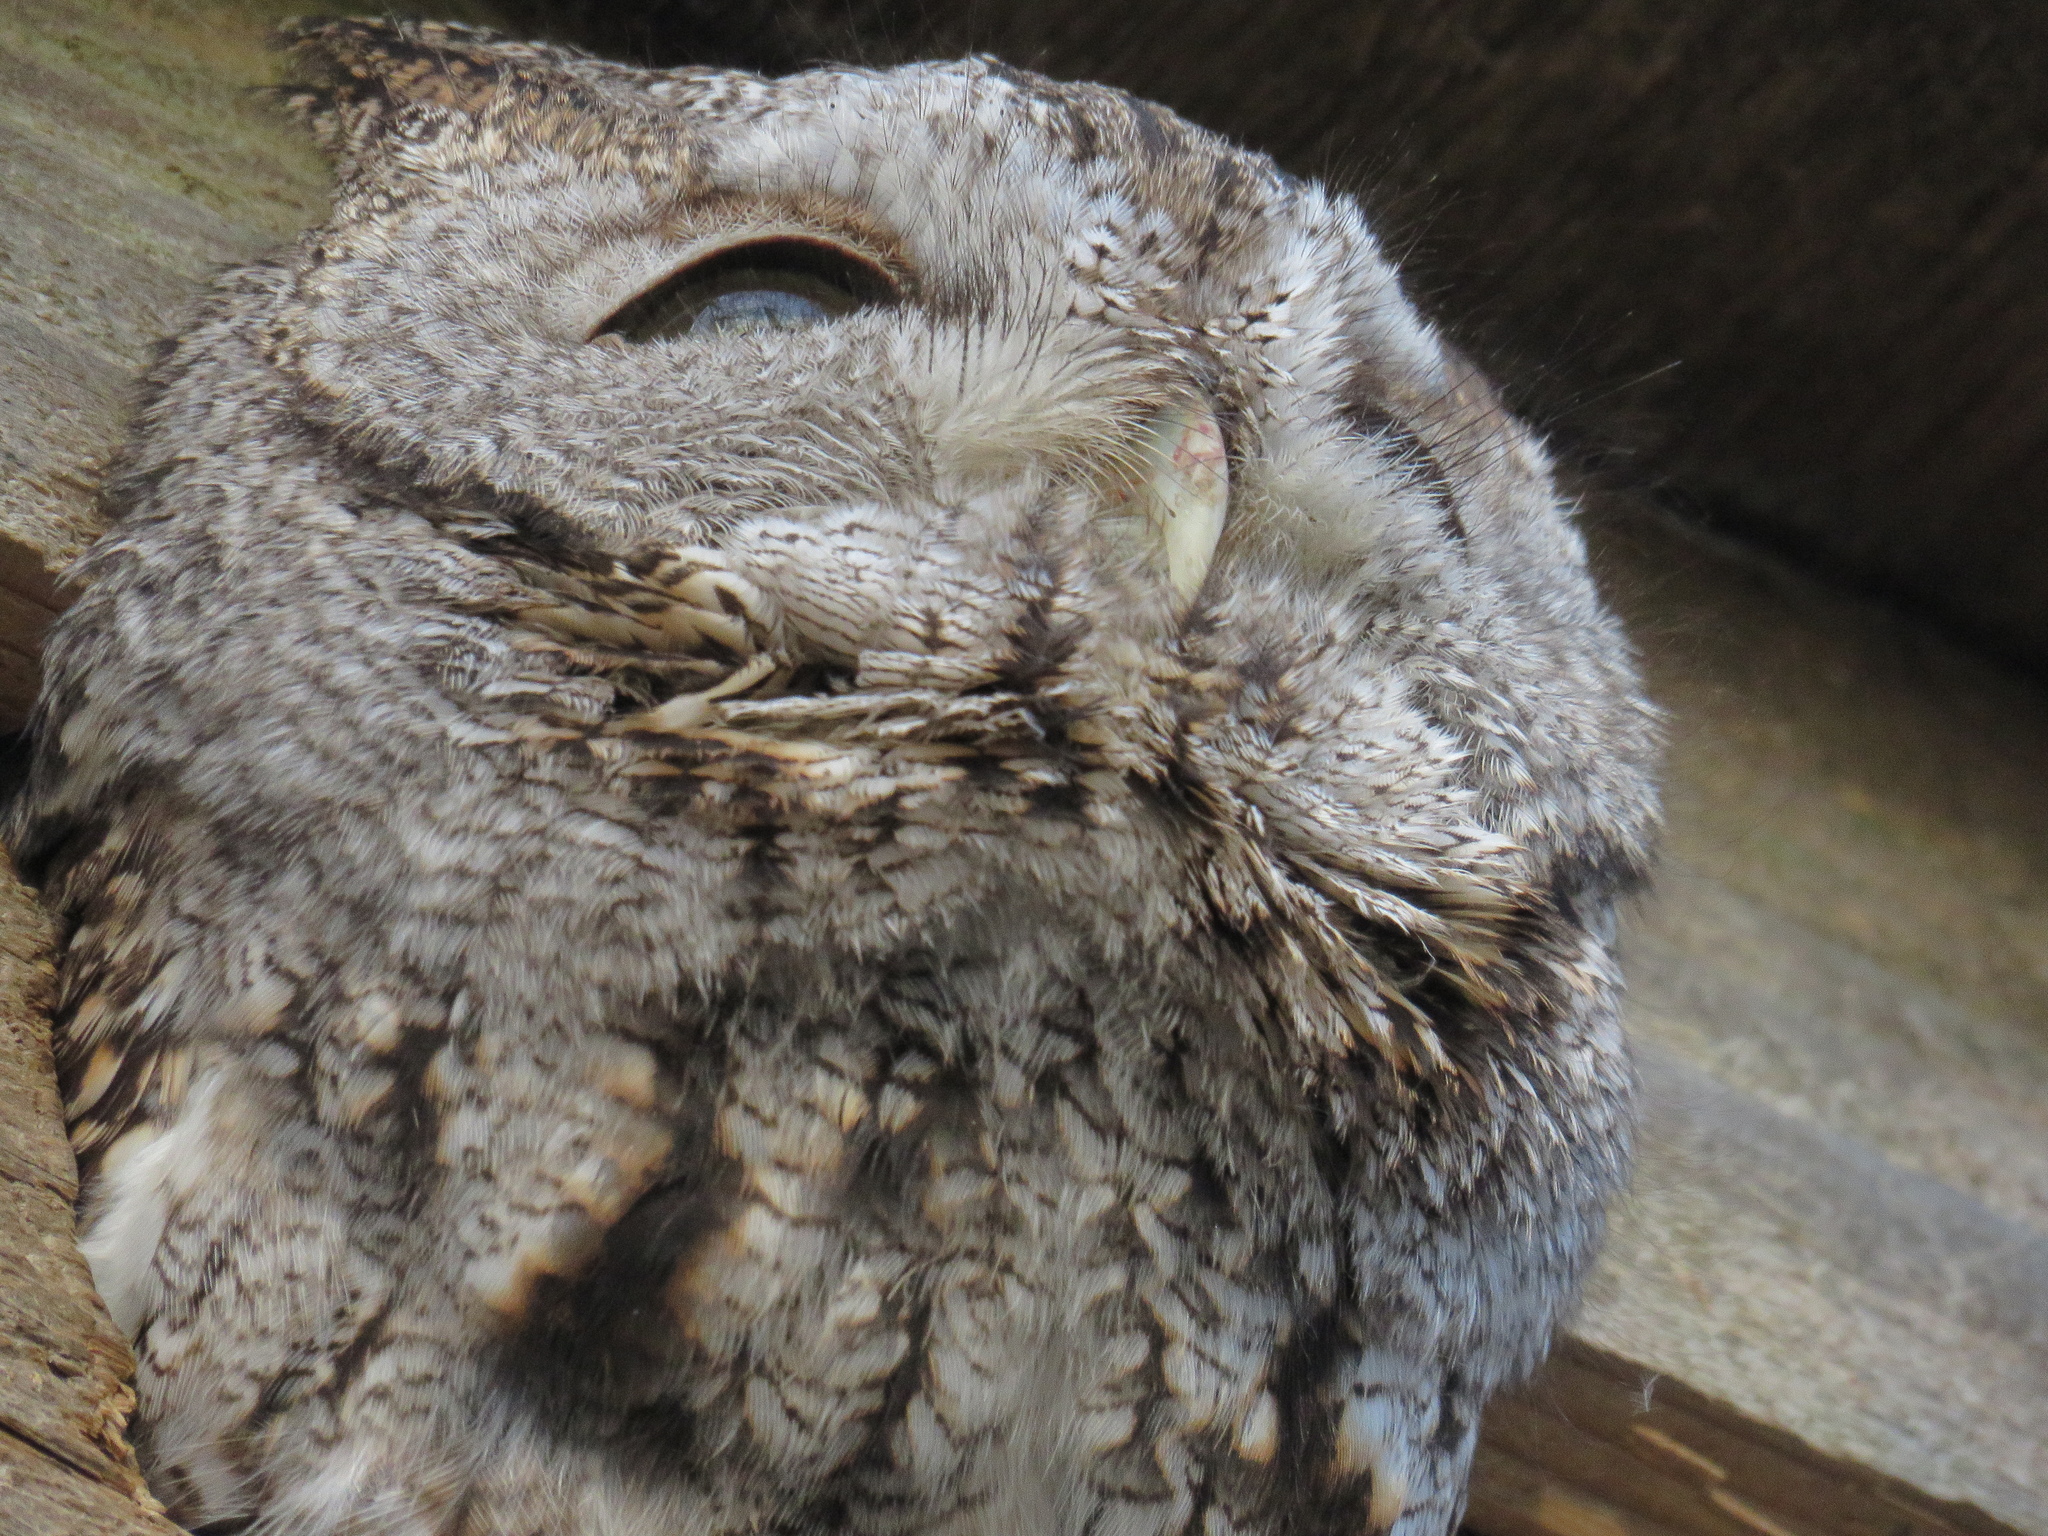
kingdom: Animalia
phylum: Chordata
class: Aves
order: Strigiformes
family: Strigidae
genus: Megascops
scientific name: Megascops asio
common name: Eastern screech-owl
